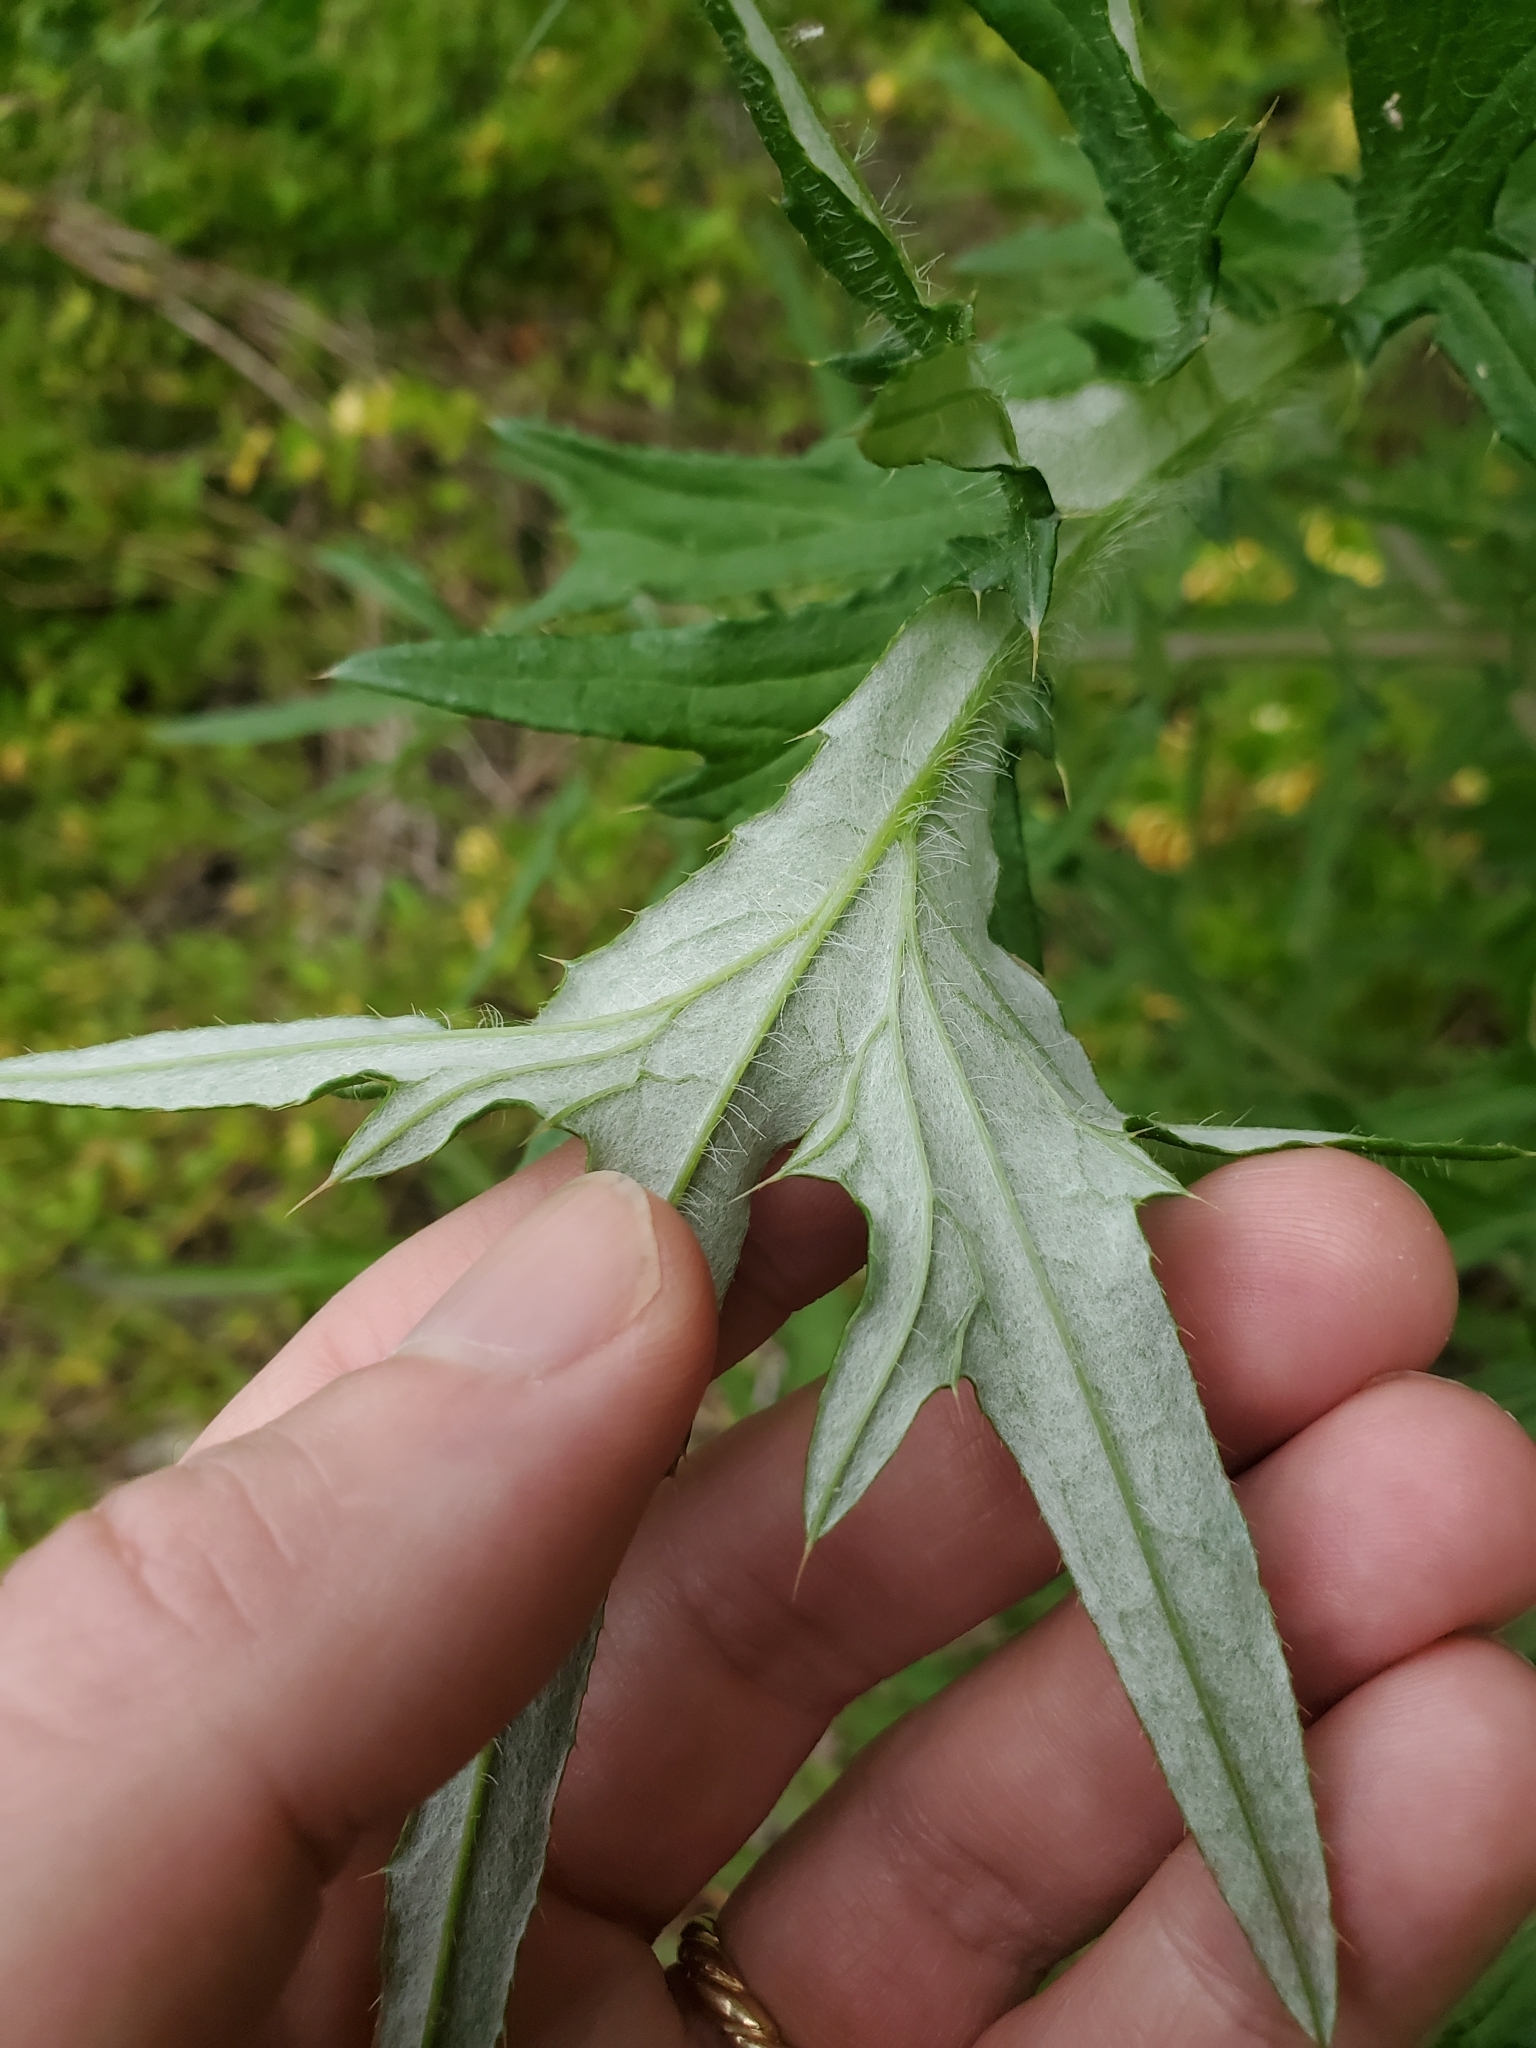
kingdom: Plantae
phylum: Tracheophyta
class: Magnoliopsida
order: Asterales
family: Asteraceae
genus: Cirsium
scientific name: Cirsium discolor
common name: Field thistle
